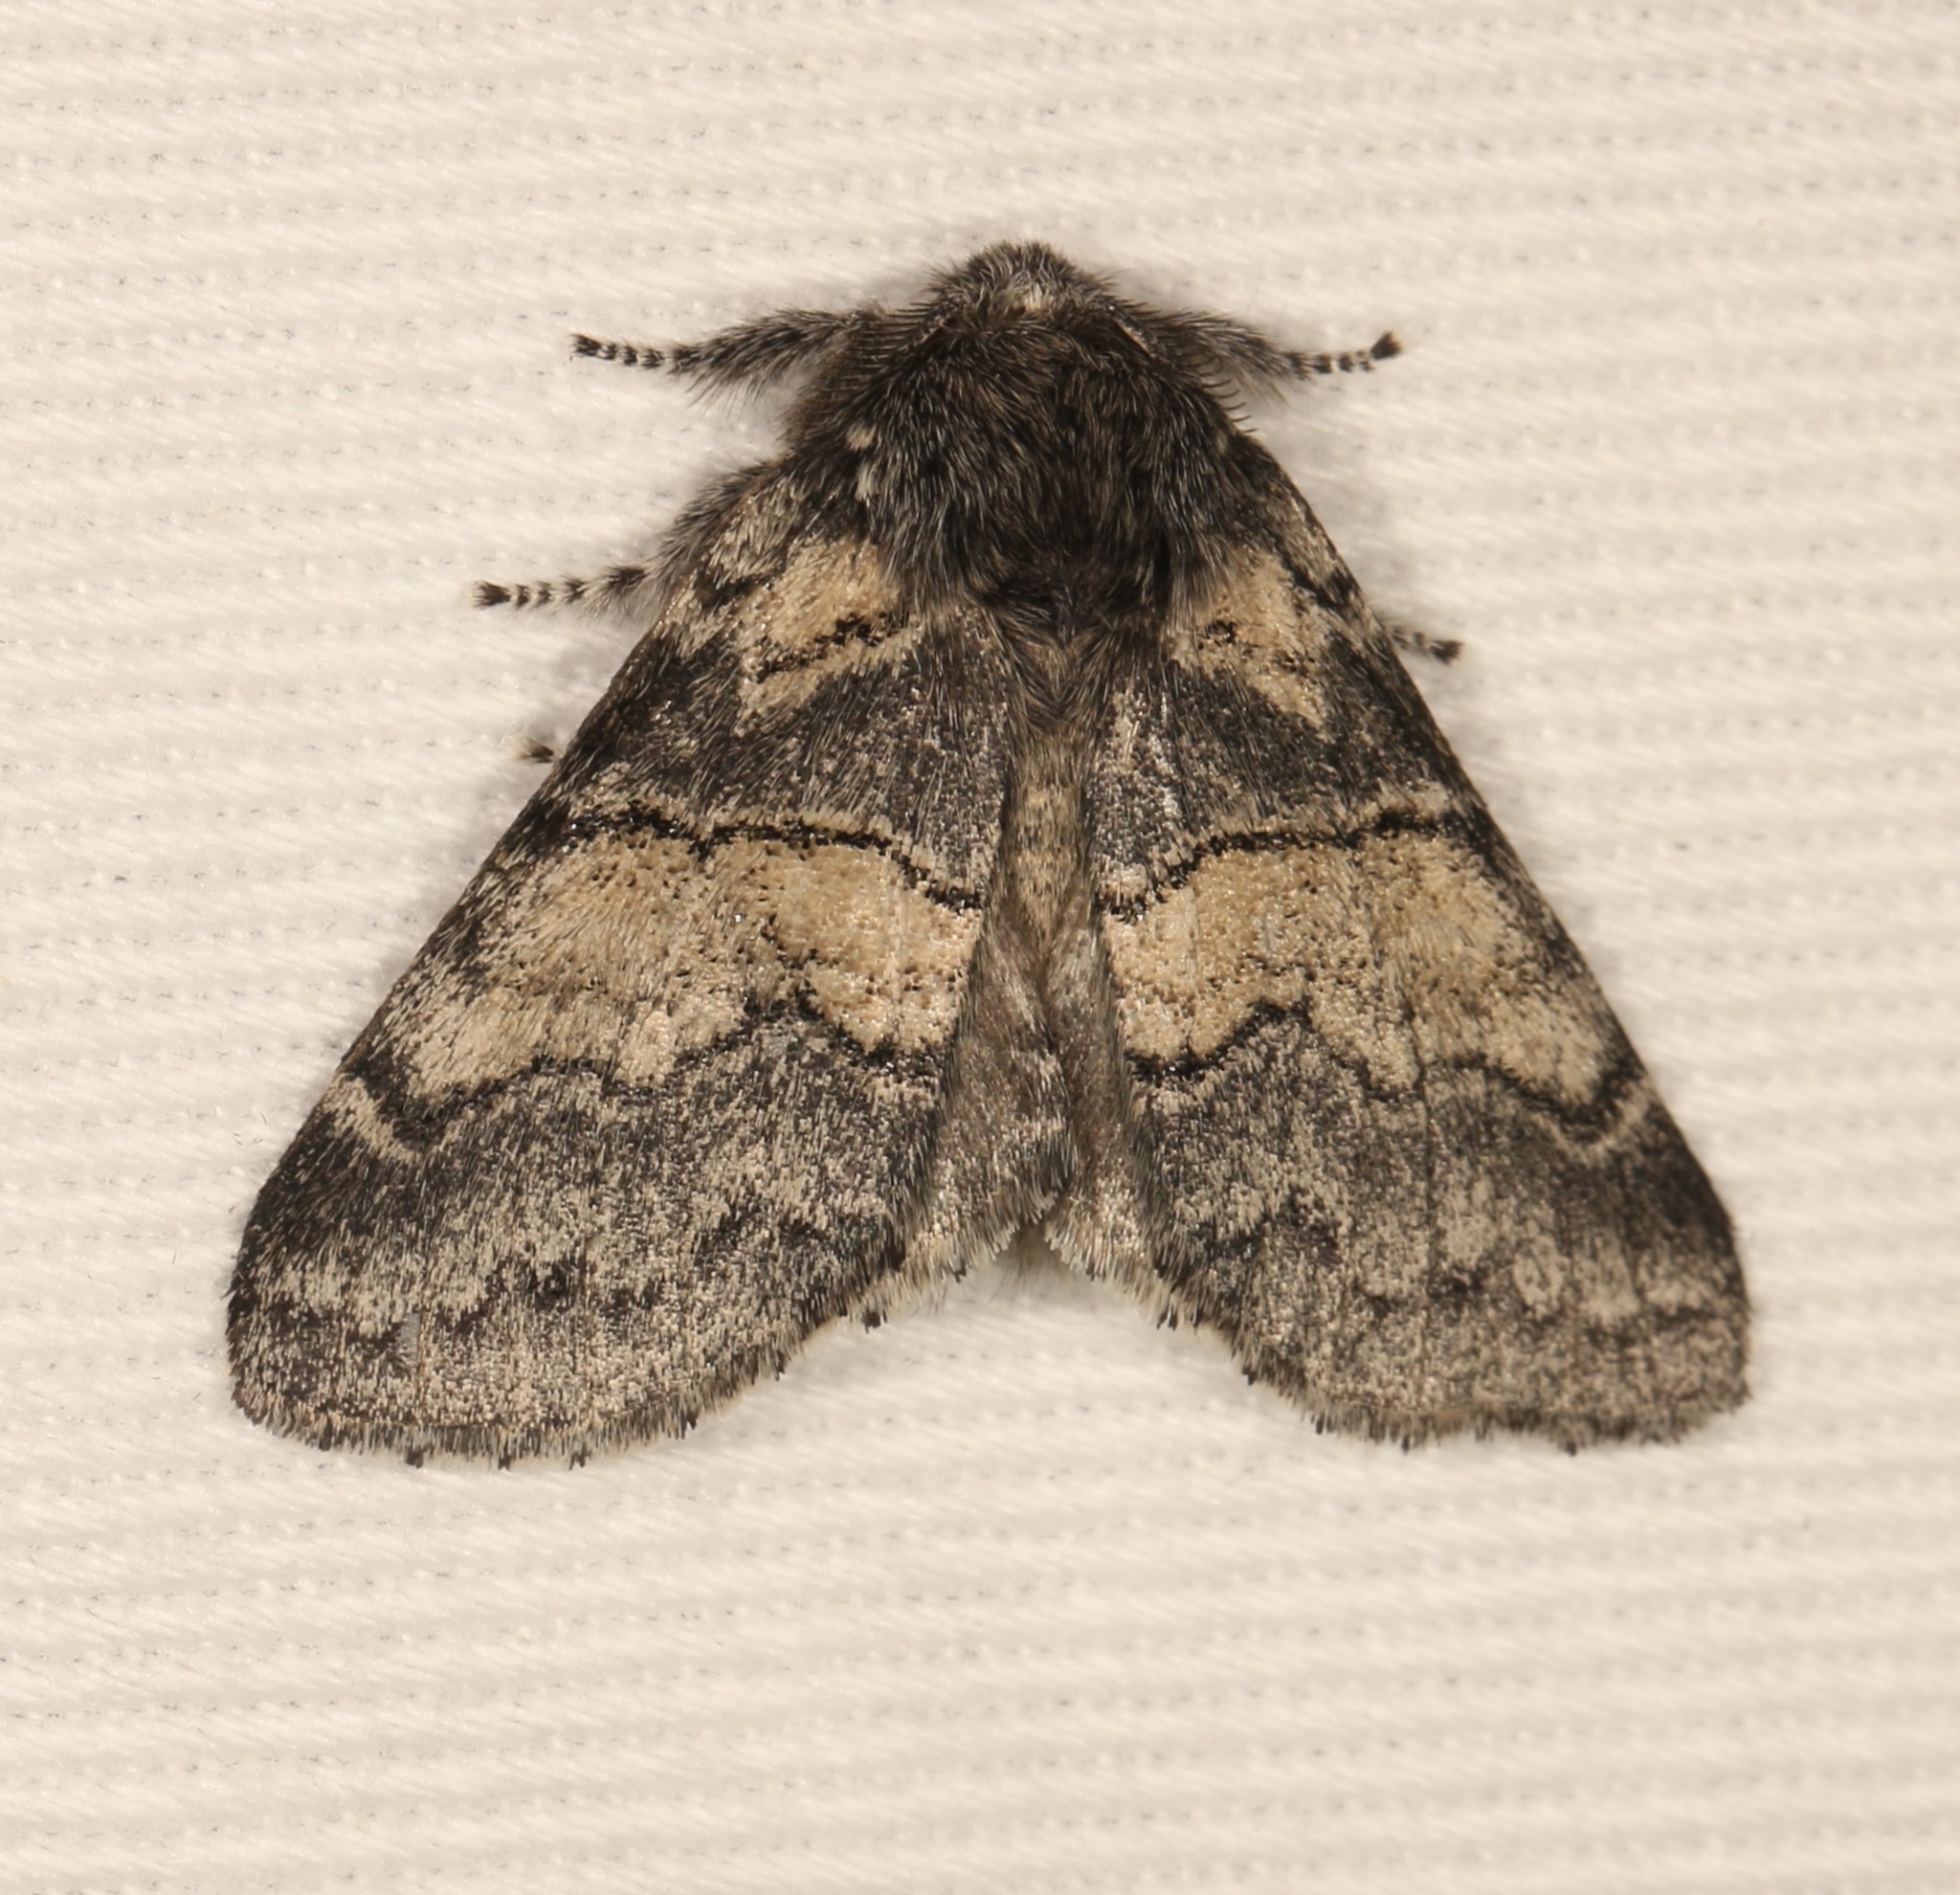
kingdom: Animalia
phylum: Arthropoda
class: Insecta
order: Lepidoptera
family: Notodontidae
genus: Gluphisia
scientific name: Gluphisia septentrionis
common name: Common gluphisia
